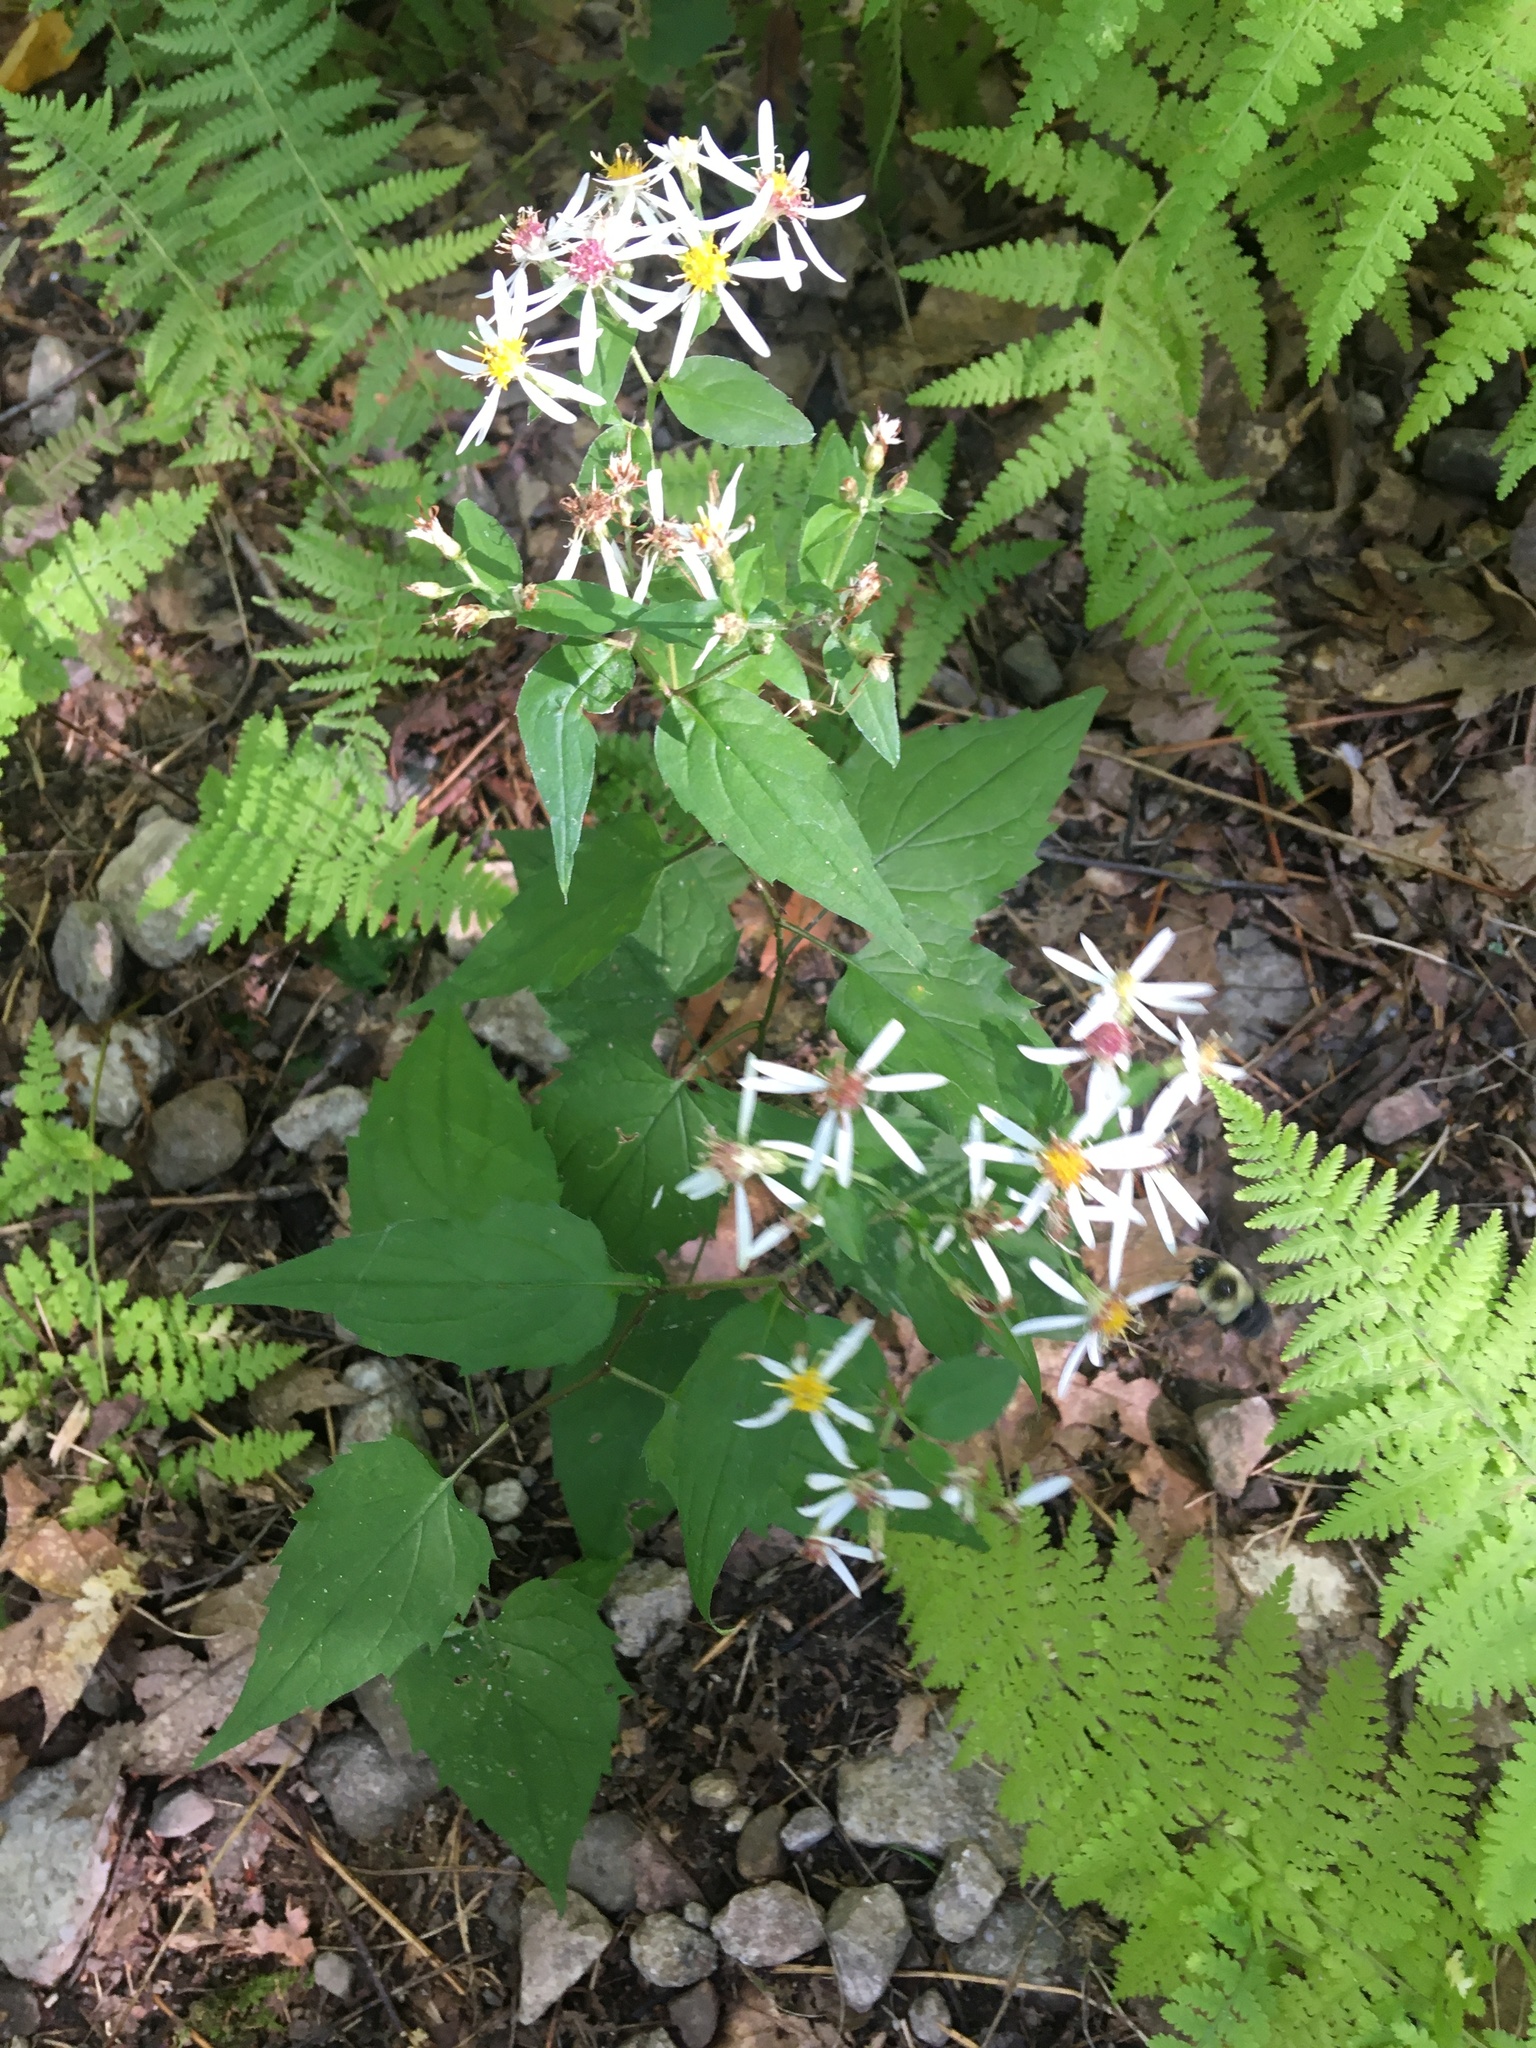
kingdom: Plantae
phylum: Tracheophyta
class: Magnoliopsida
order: Asterales
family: Asteraceae
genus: Eurybia
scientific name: Eurybia divaricata
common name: White wood aster
